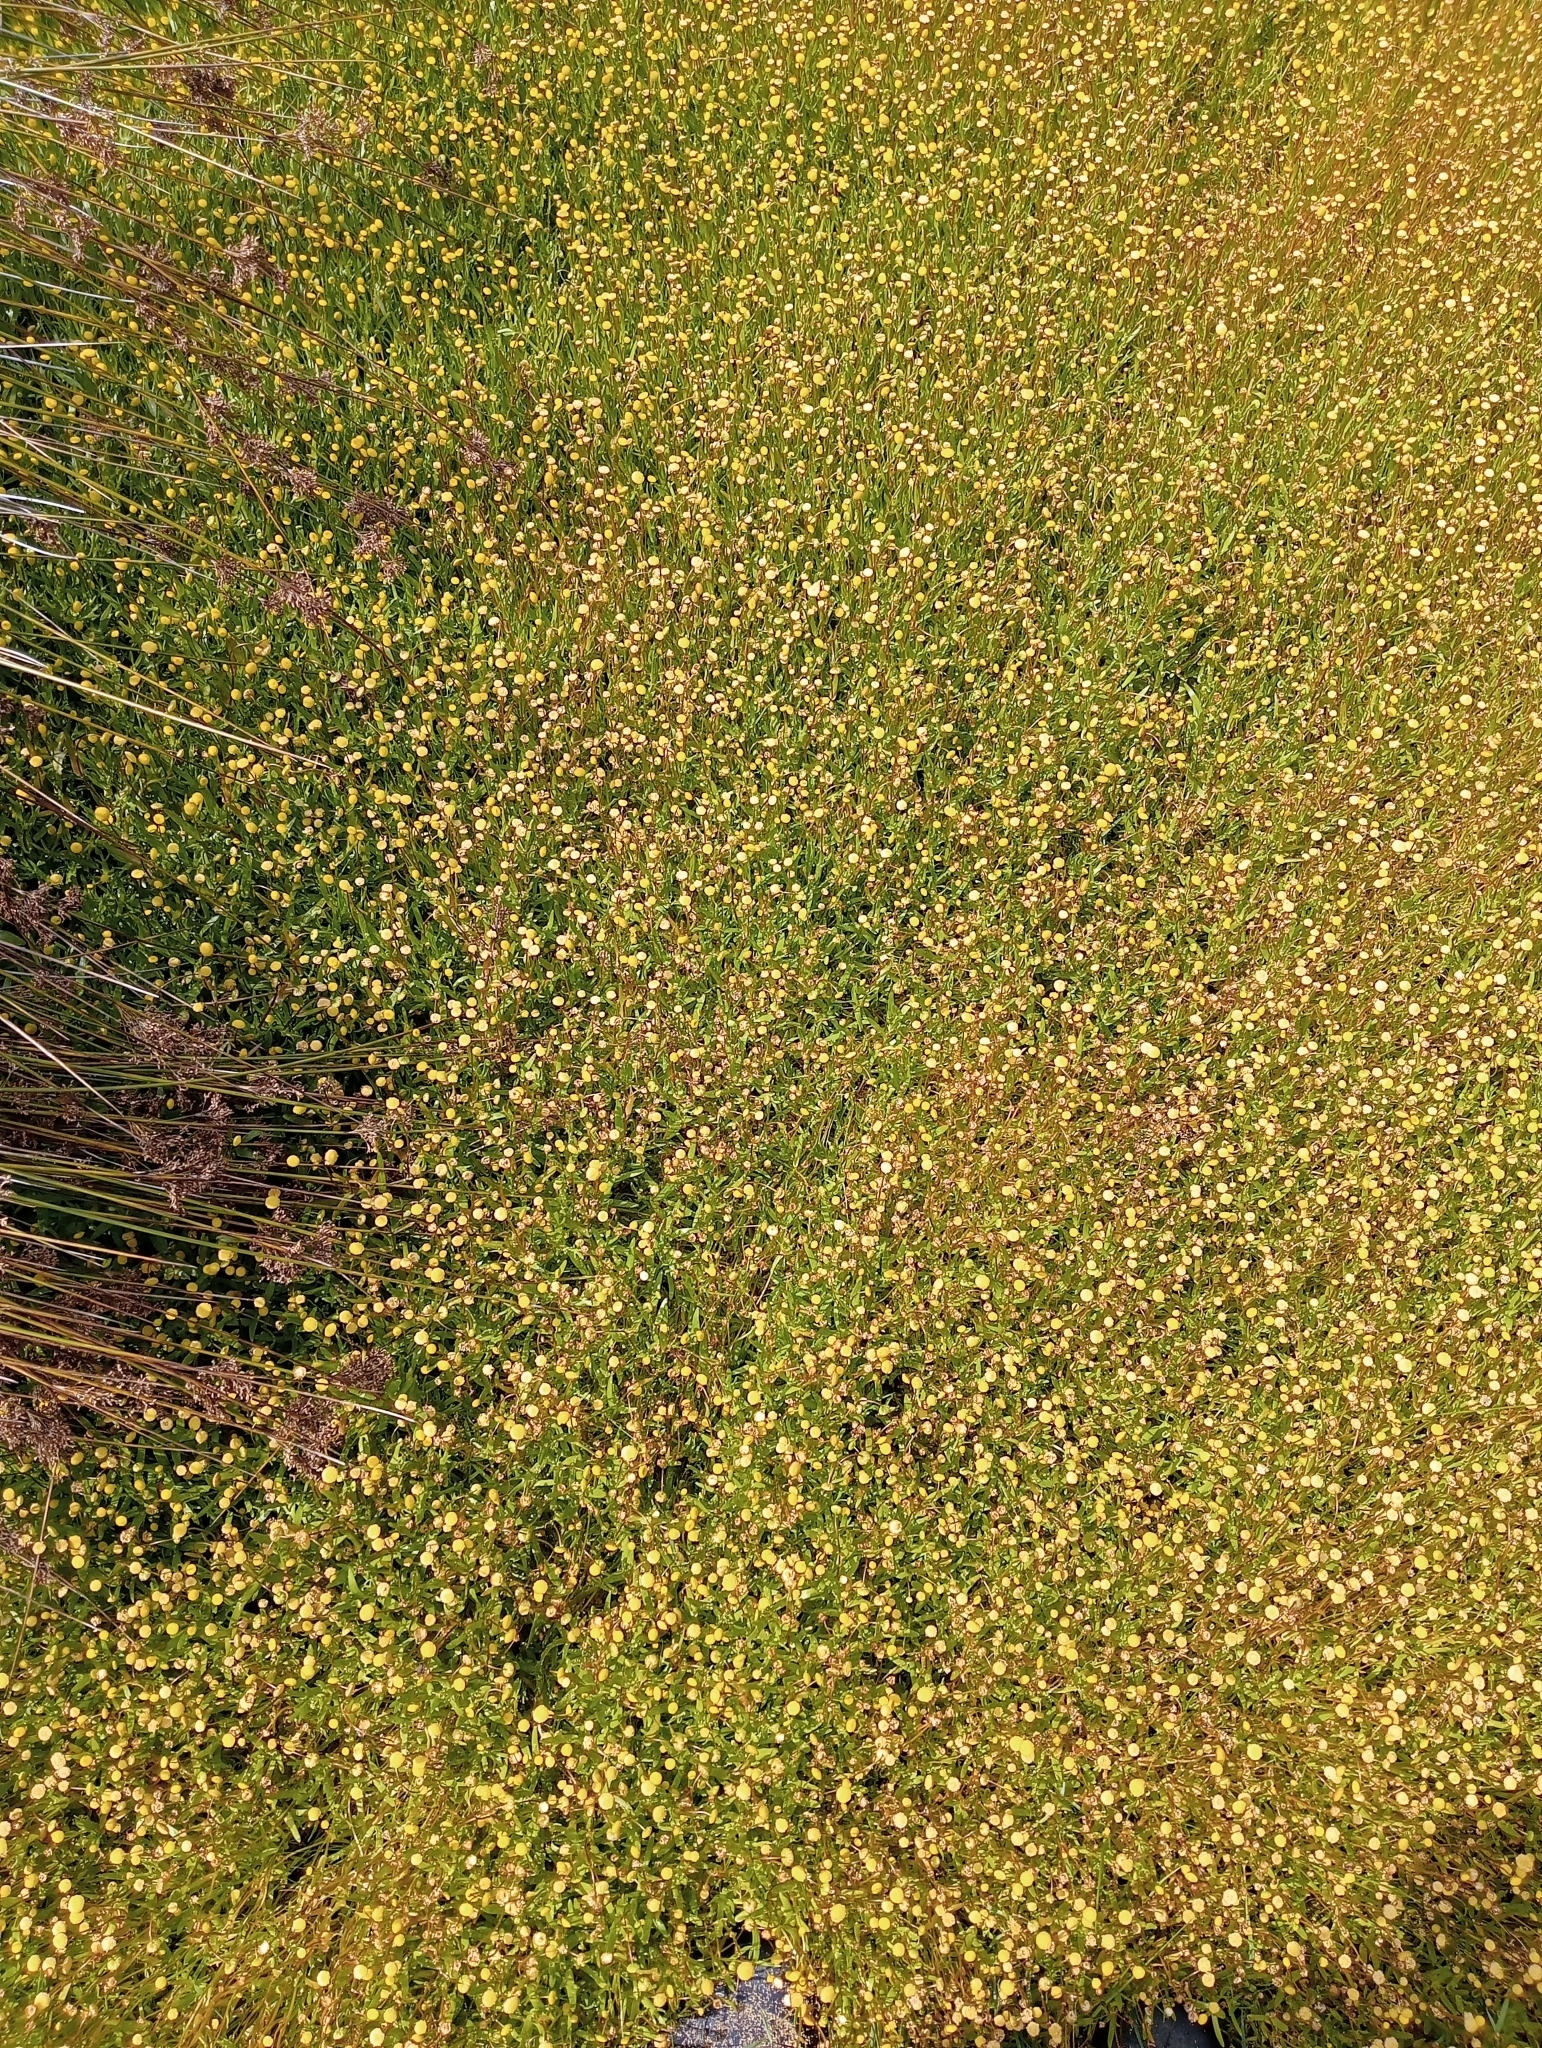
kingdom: Plantae
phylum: Tracheophyta
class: Magnoliopsida
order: Asterales
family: Asteraceae
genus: Cotula
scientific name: Cotula coronopifolia
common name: Buttonweed
